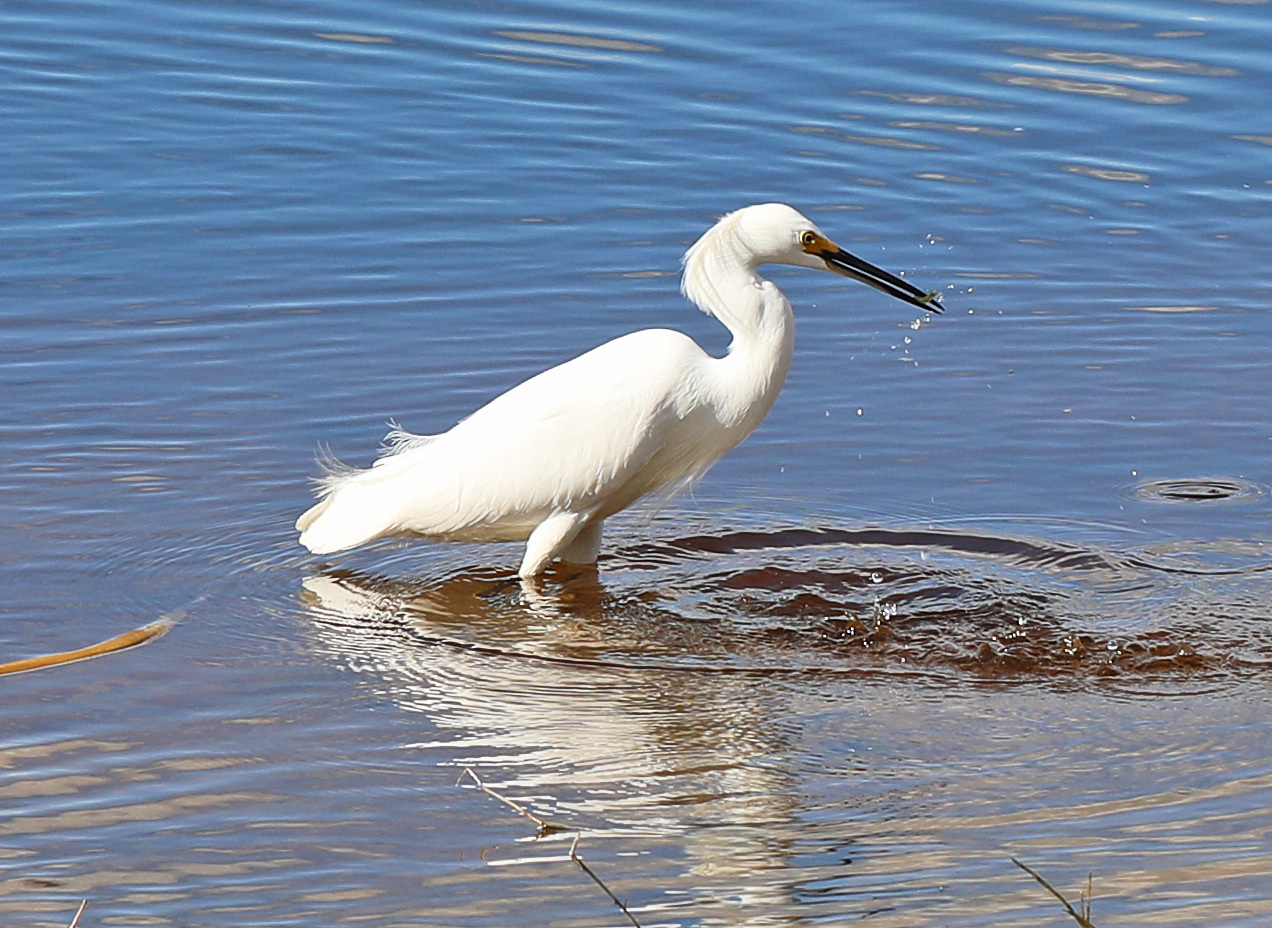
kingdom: Animalia
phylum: Chordata
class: Aves
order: Pelecaniformes
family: Ardeidae
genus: Egretta
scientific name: Egretta thula
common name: Snowy egret
